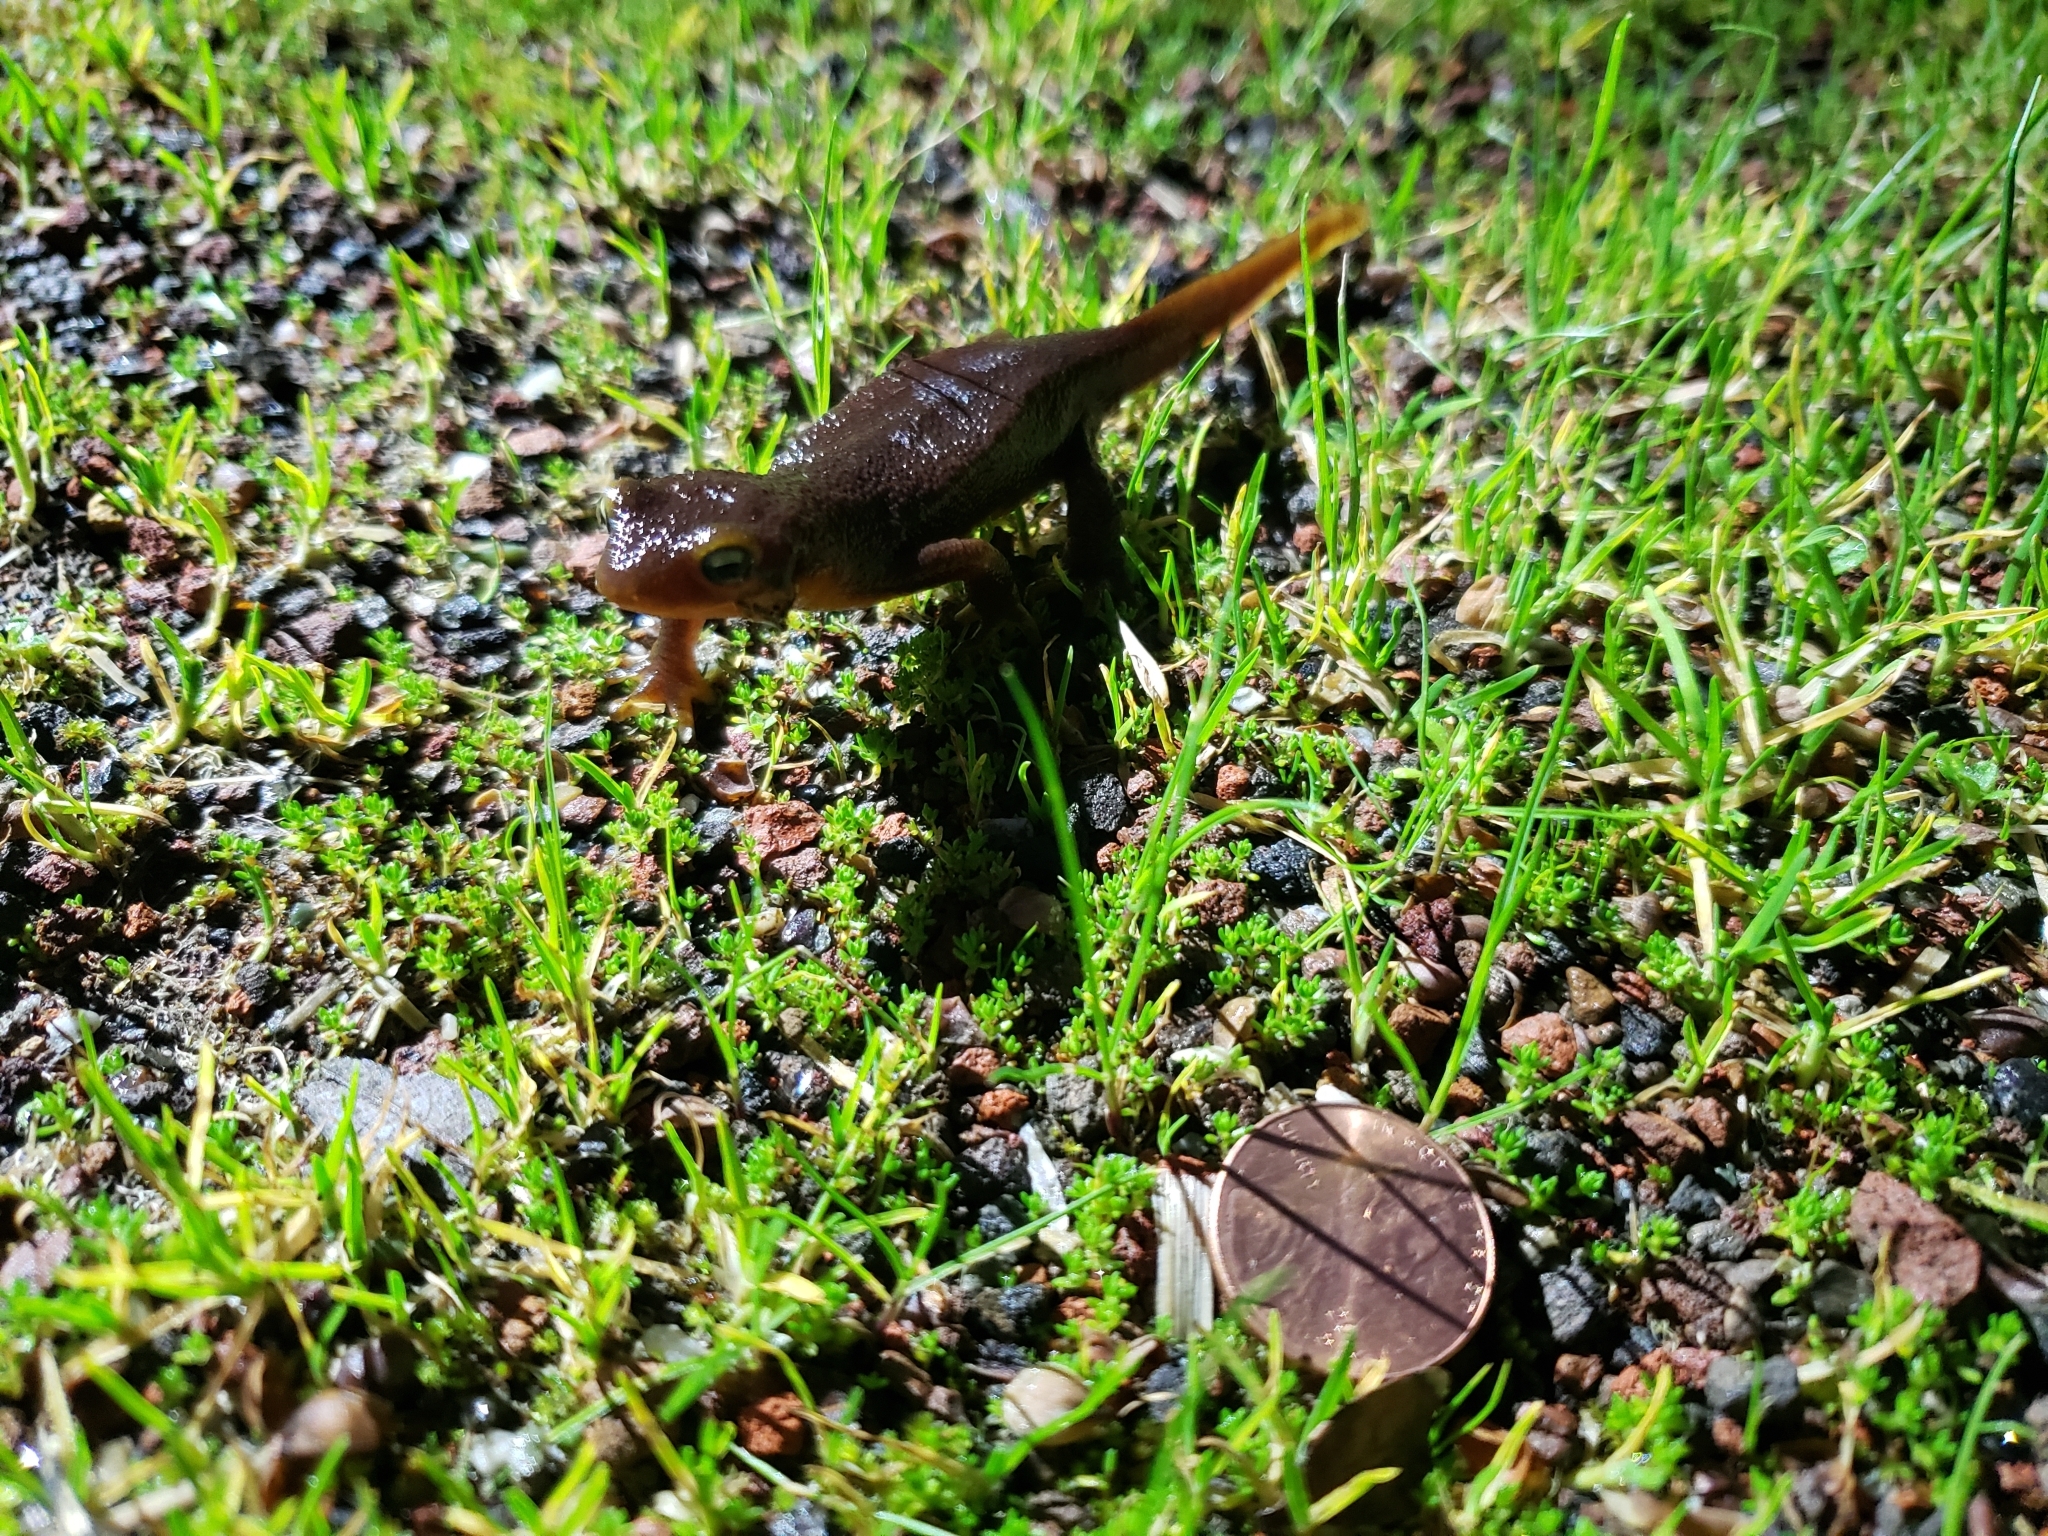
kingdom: Animalia
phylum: Chordata
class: Amphibia
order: Caudata
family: Salamandridae
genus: Taricha
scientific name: Taricha torosa
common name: California newt
